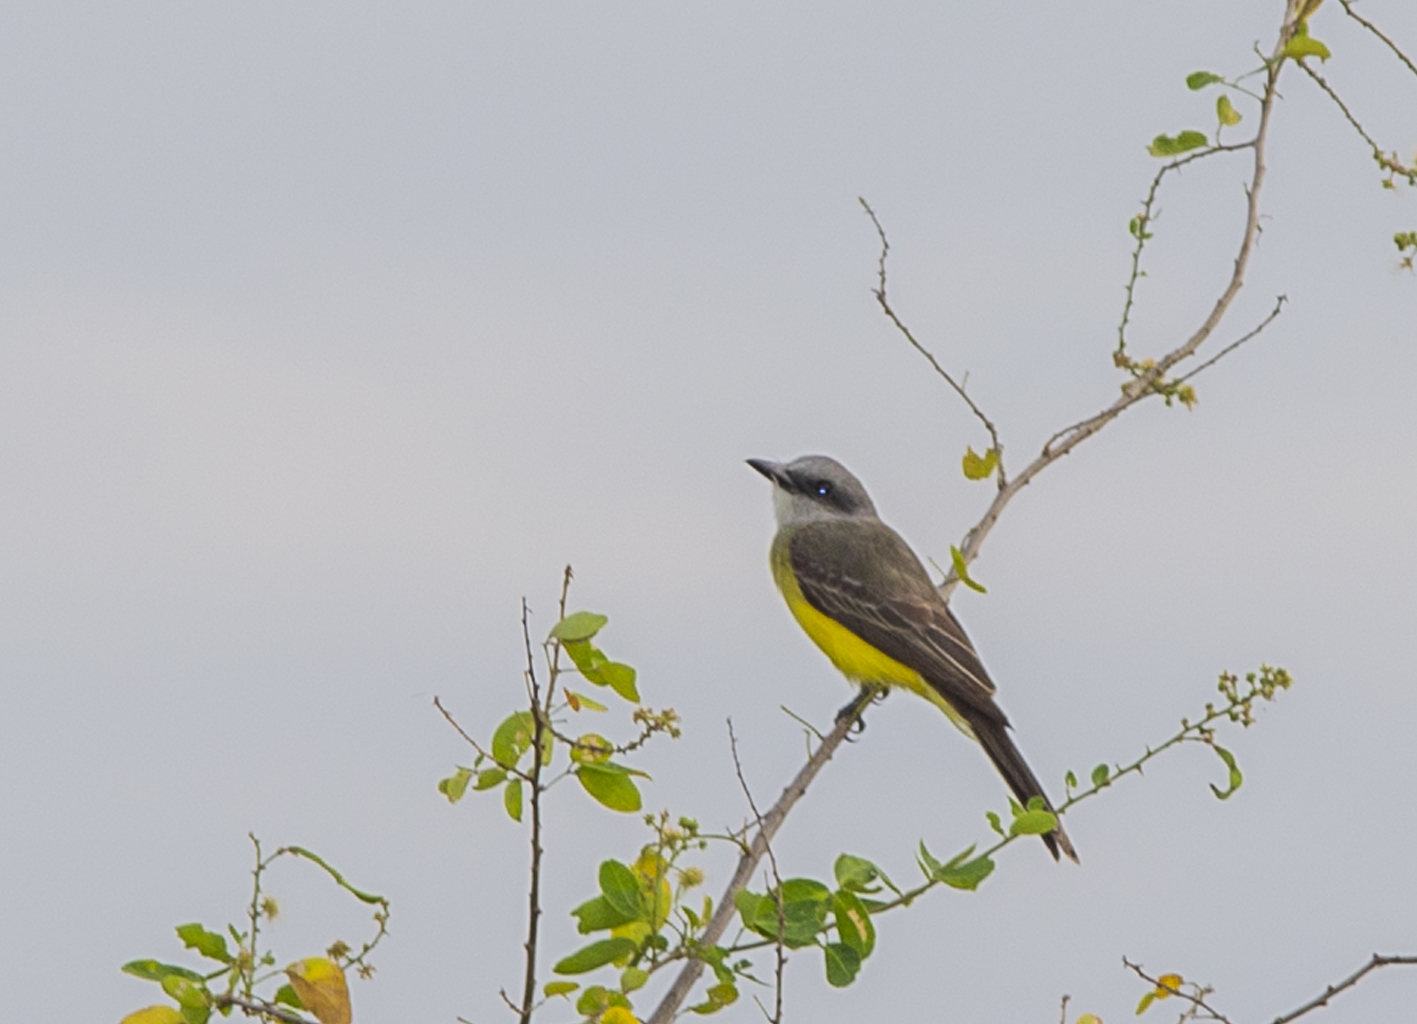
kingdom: Animalia
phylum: Chordata
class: Aves
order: Passeriformes
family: Tyrannidae
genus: Tyrannus
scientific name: Tyrannus melancholicus
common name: Tropical kingbird
